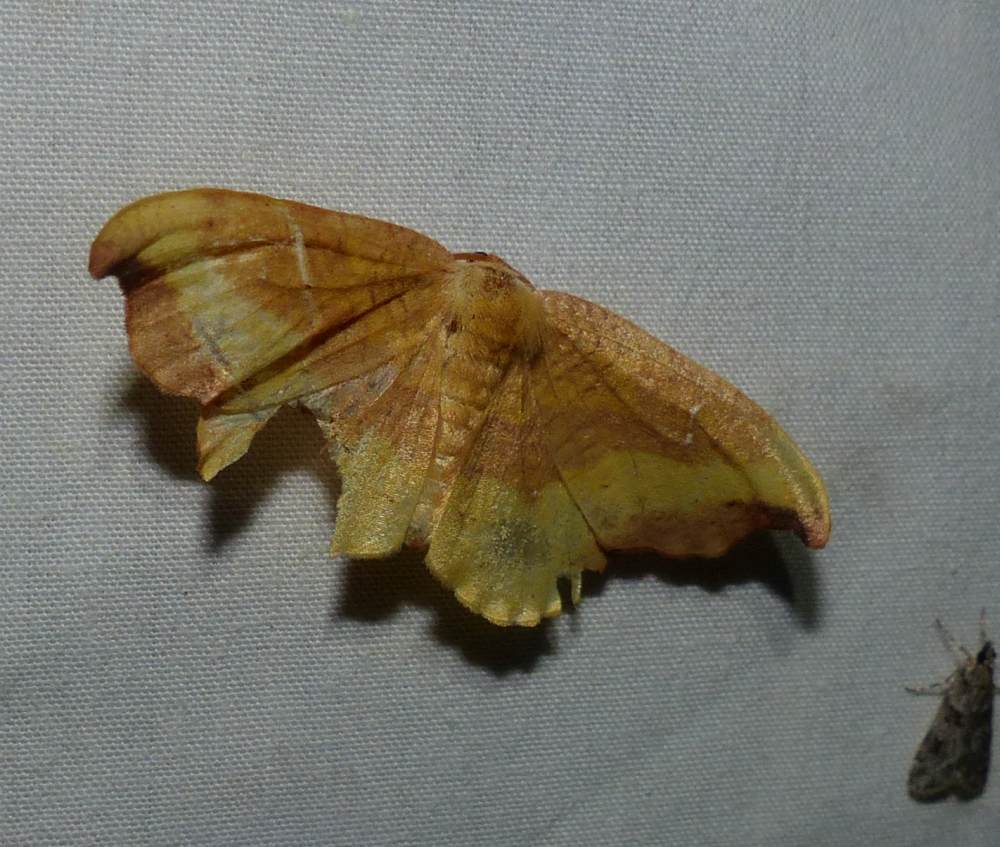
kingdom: Animalia
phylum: Arthropoda
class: Insecta
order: Lepidoptera
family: Drepanidae
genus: Oreta
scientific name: Oreta rosea
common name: Rose hooktip
